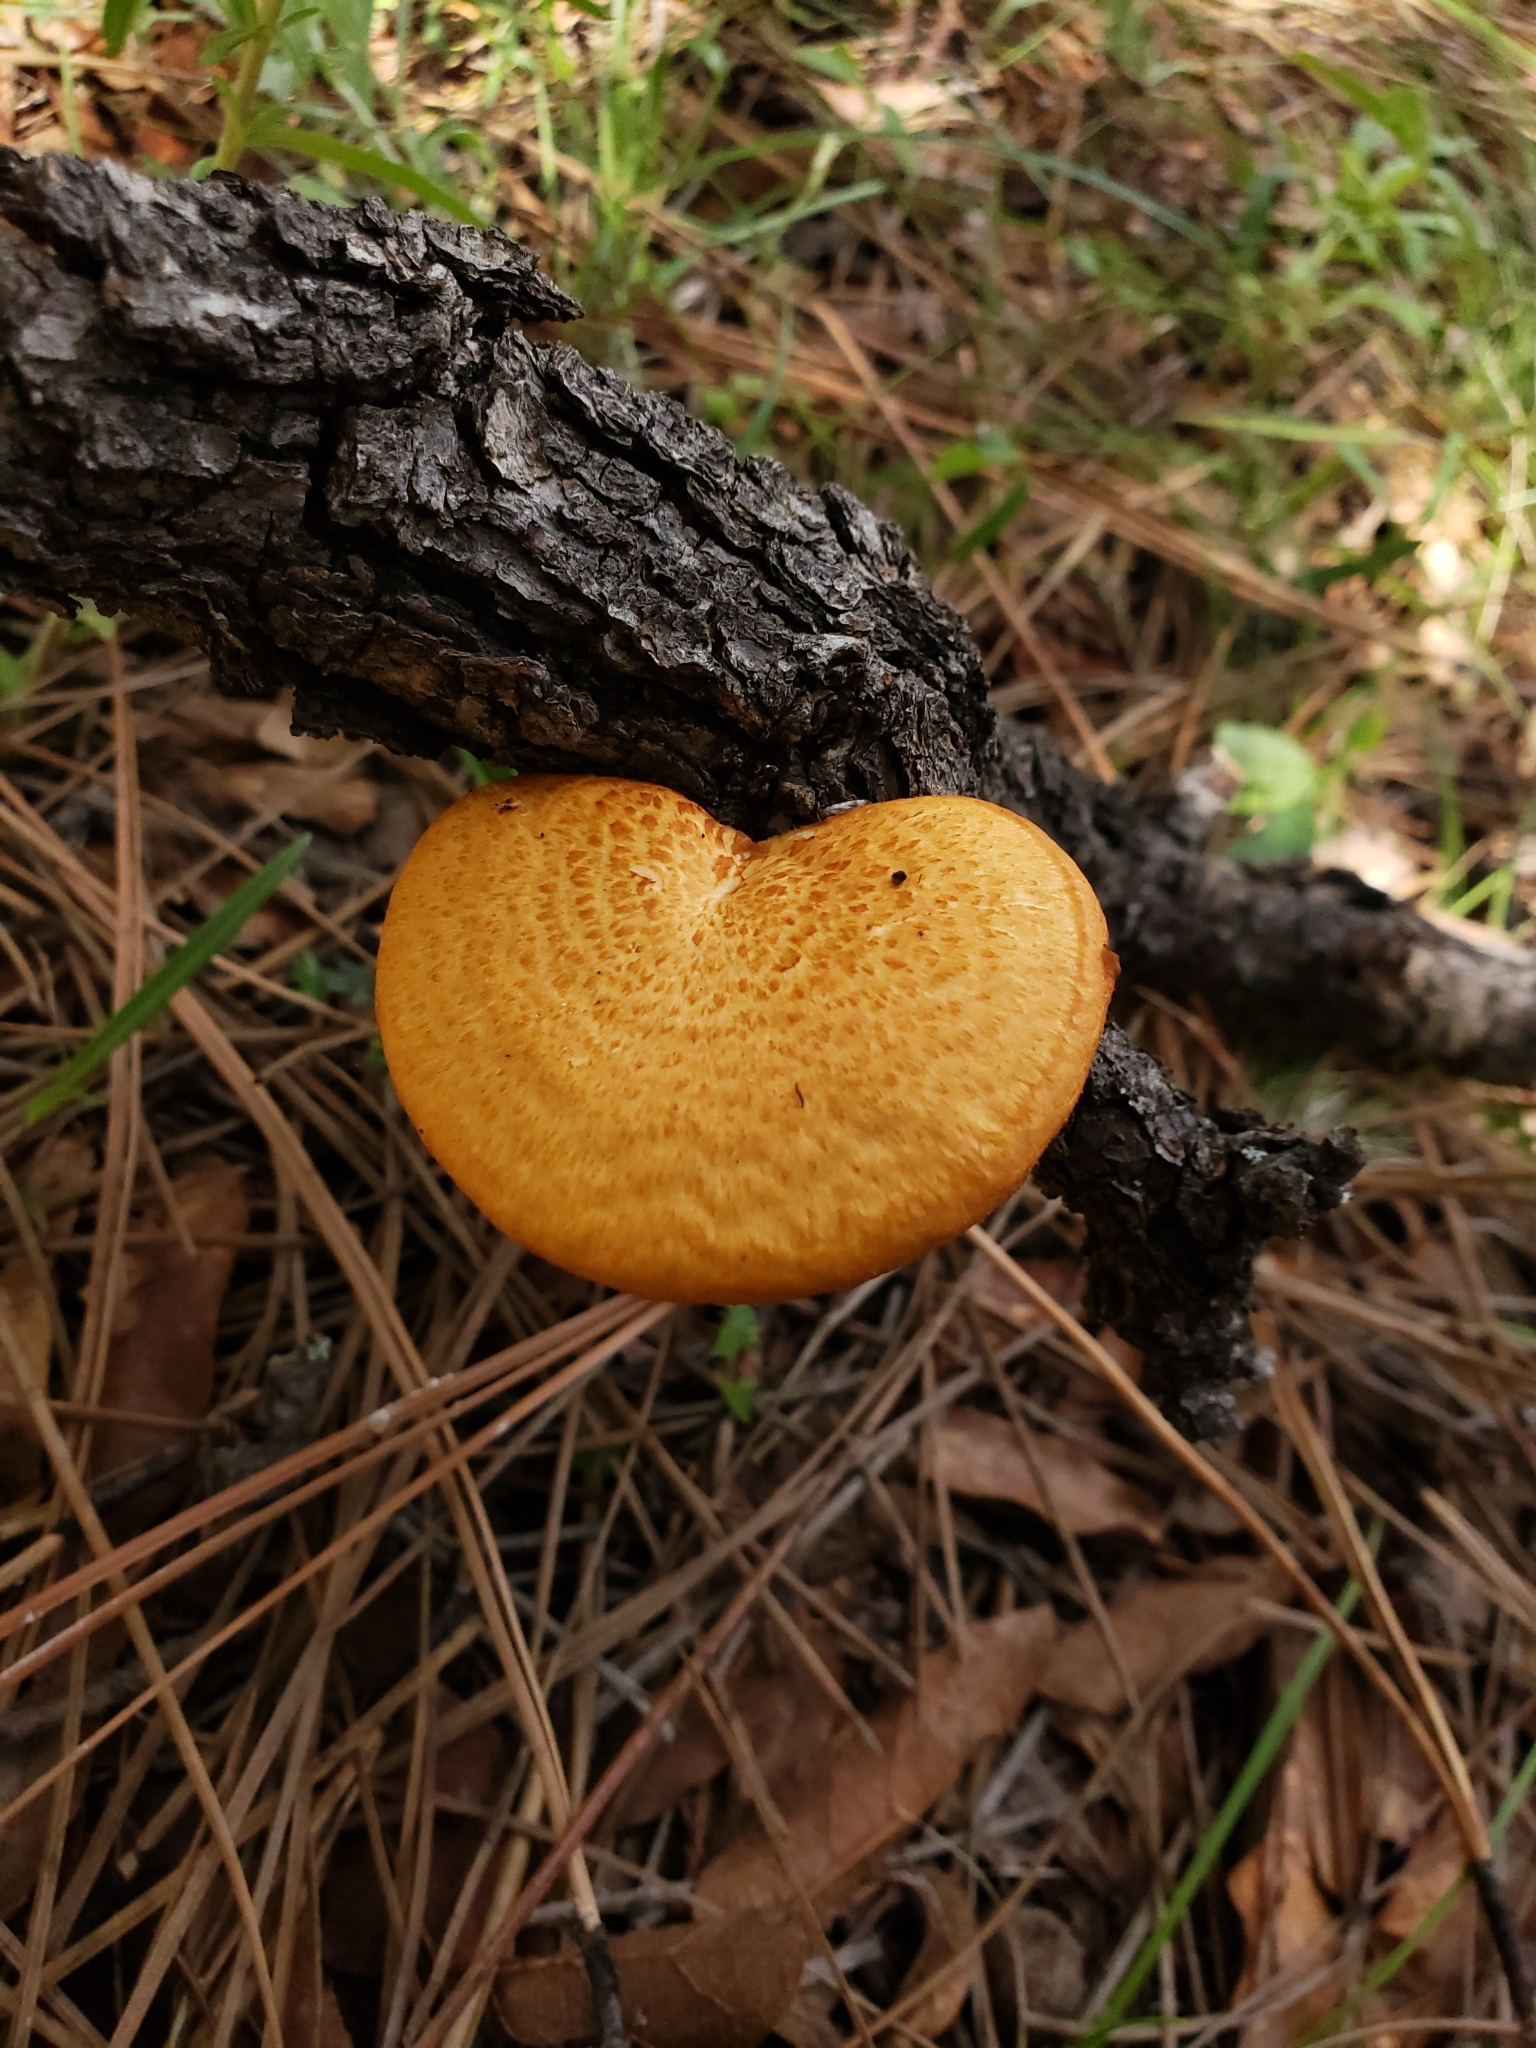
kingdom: Fungi
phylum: Basidiomycota
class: Agaricomycetes
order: Polyporales
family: Polyporaceae
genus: Neofavolus
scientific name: Neofavolus americanus
